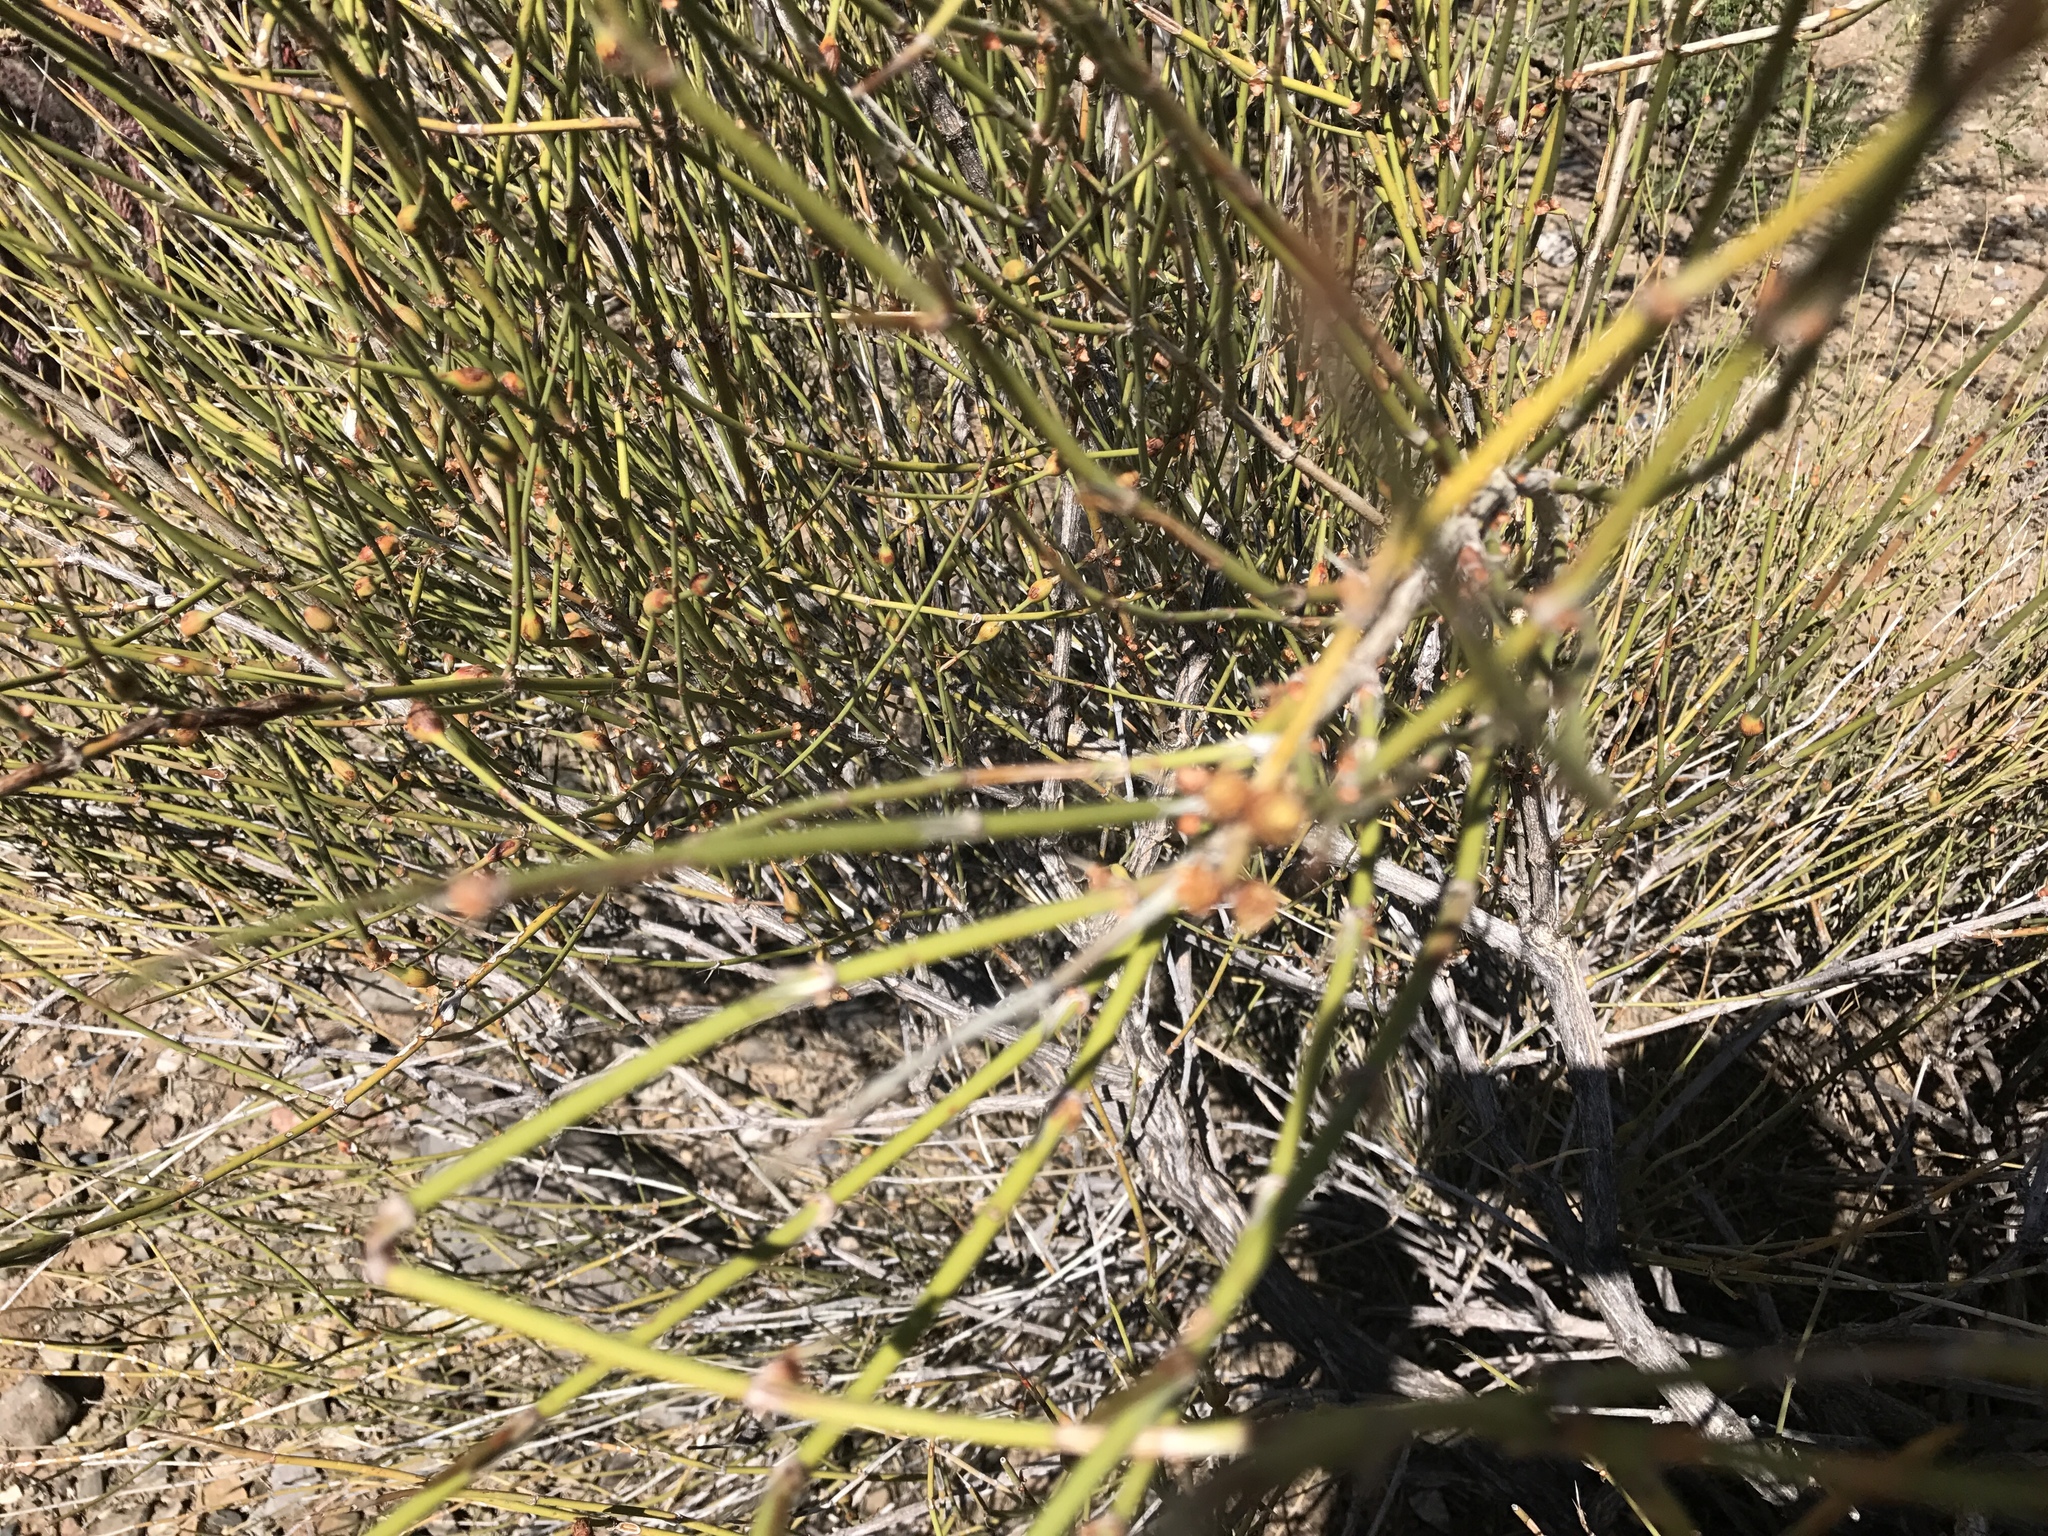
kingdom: Plantae
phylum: Tracheophyta
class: Gnetopsida
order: Ephedrales
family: Ephedraceae
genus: Ephedra
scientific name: Ephedra trifurca
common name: Mexican-tea
